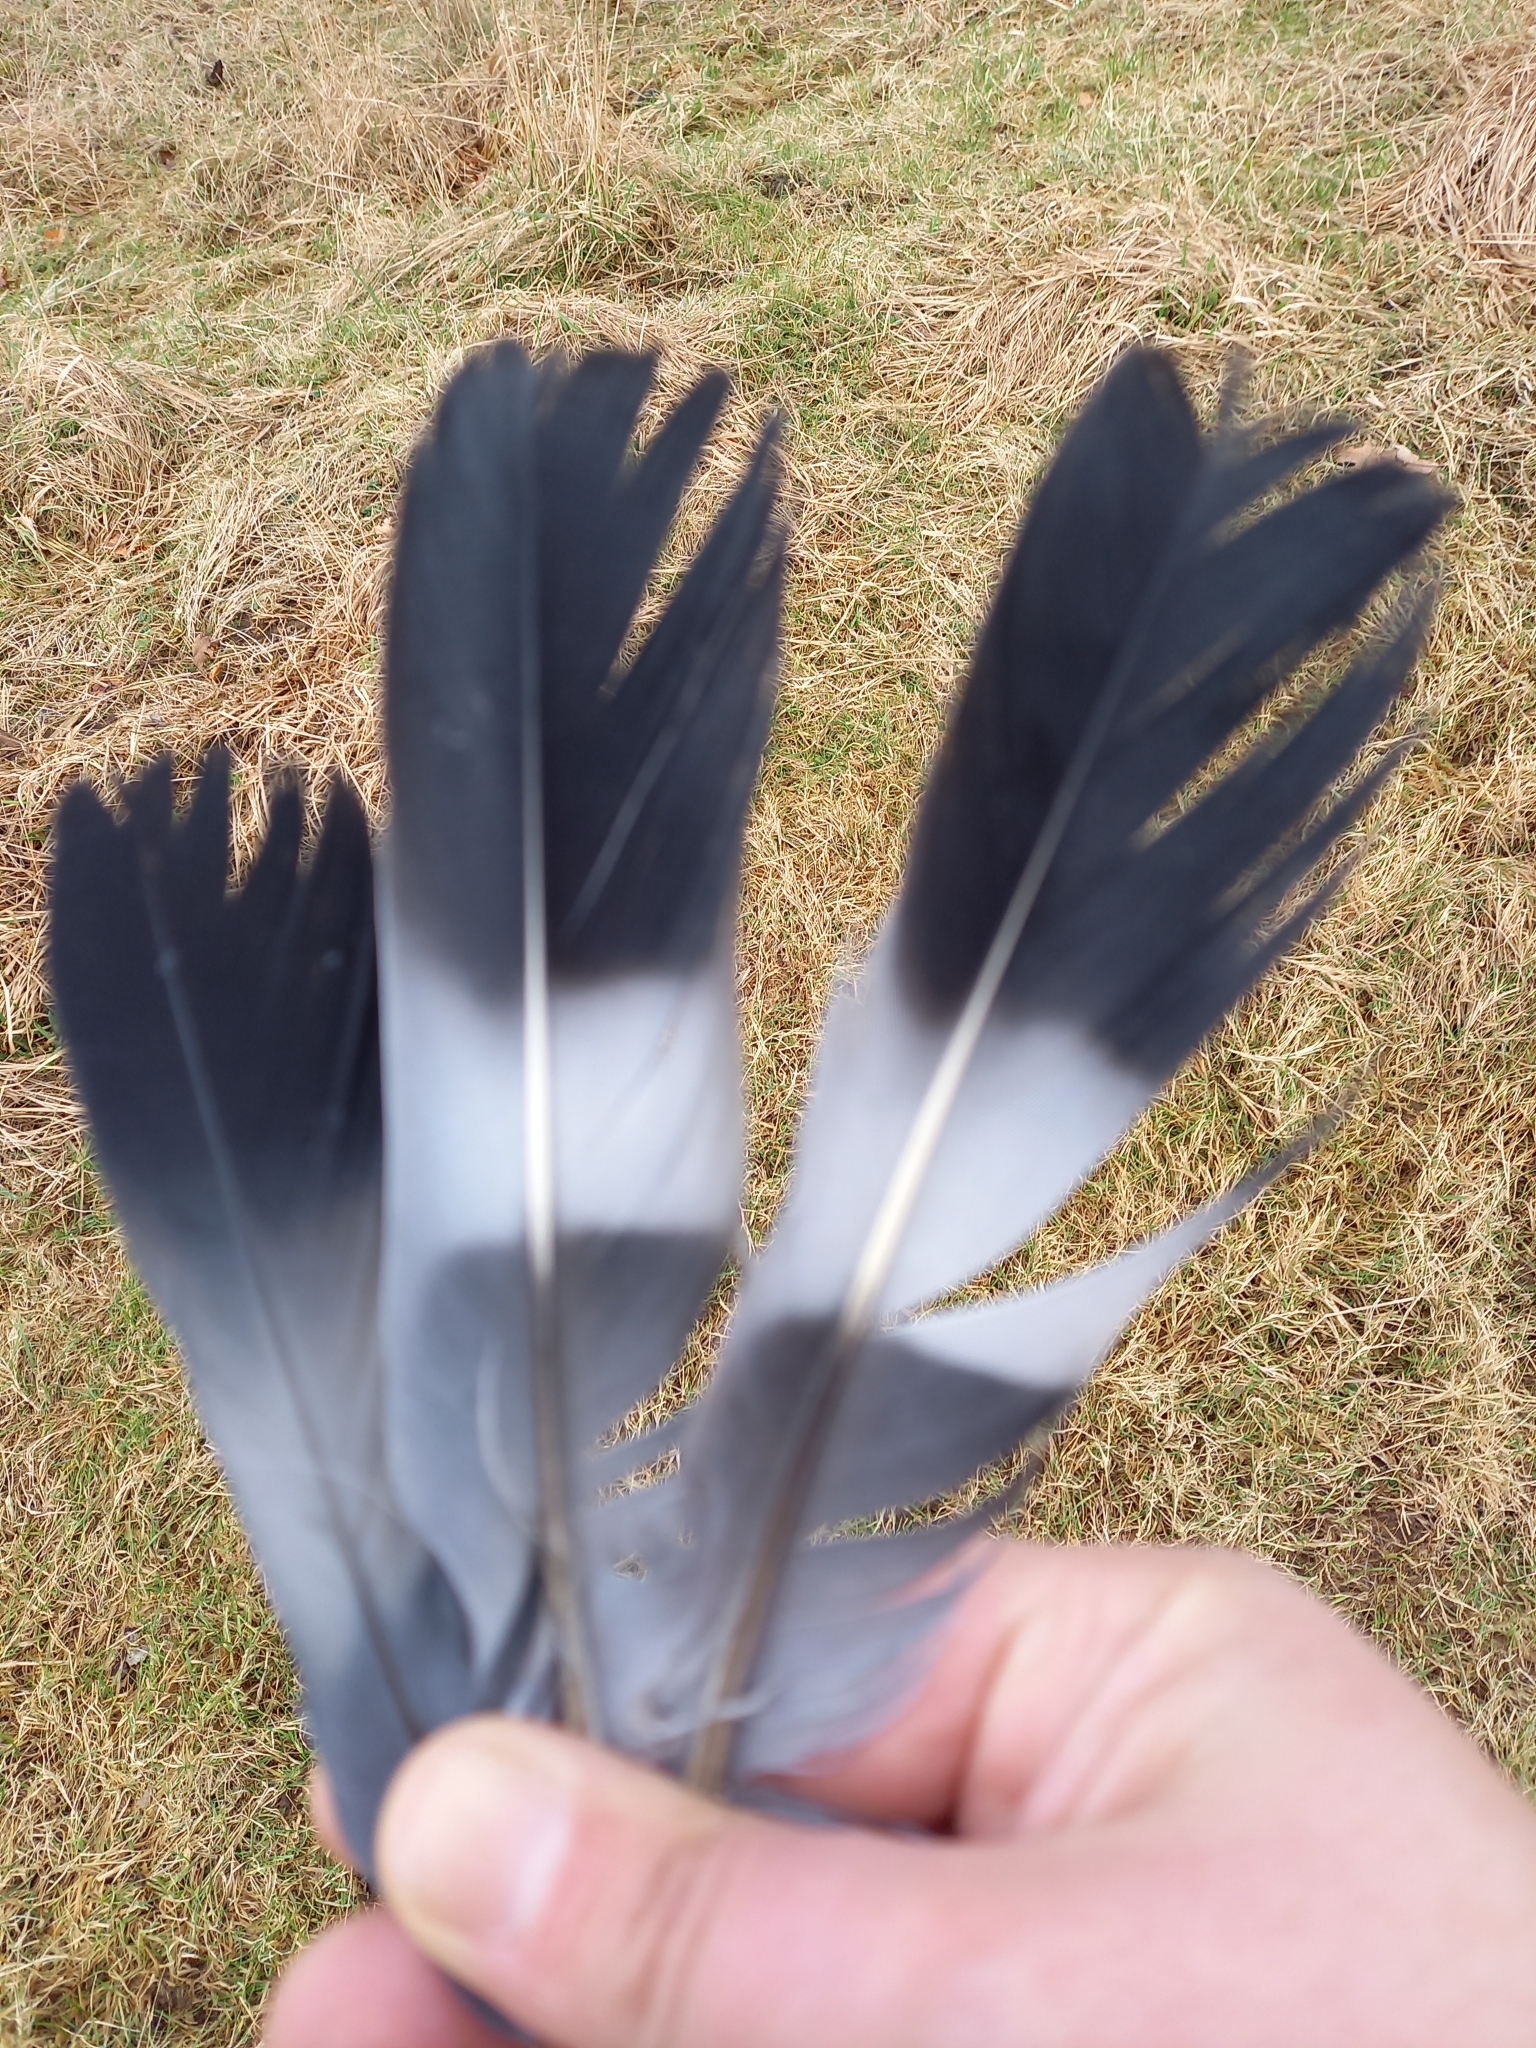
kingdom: Animalia
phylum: Chordata
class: Aves
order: Columbiformes
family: Columbidae
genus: Columba
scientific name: Columba palumbus
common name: Common wood pigeon
